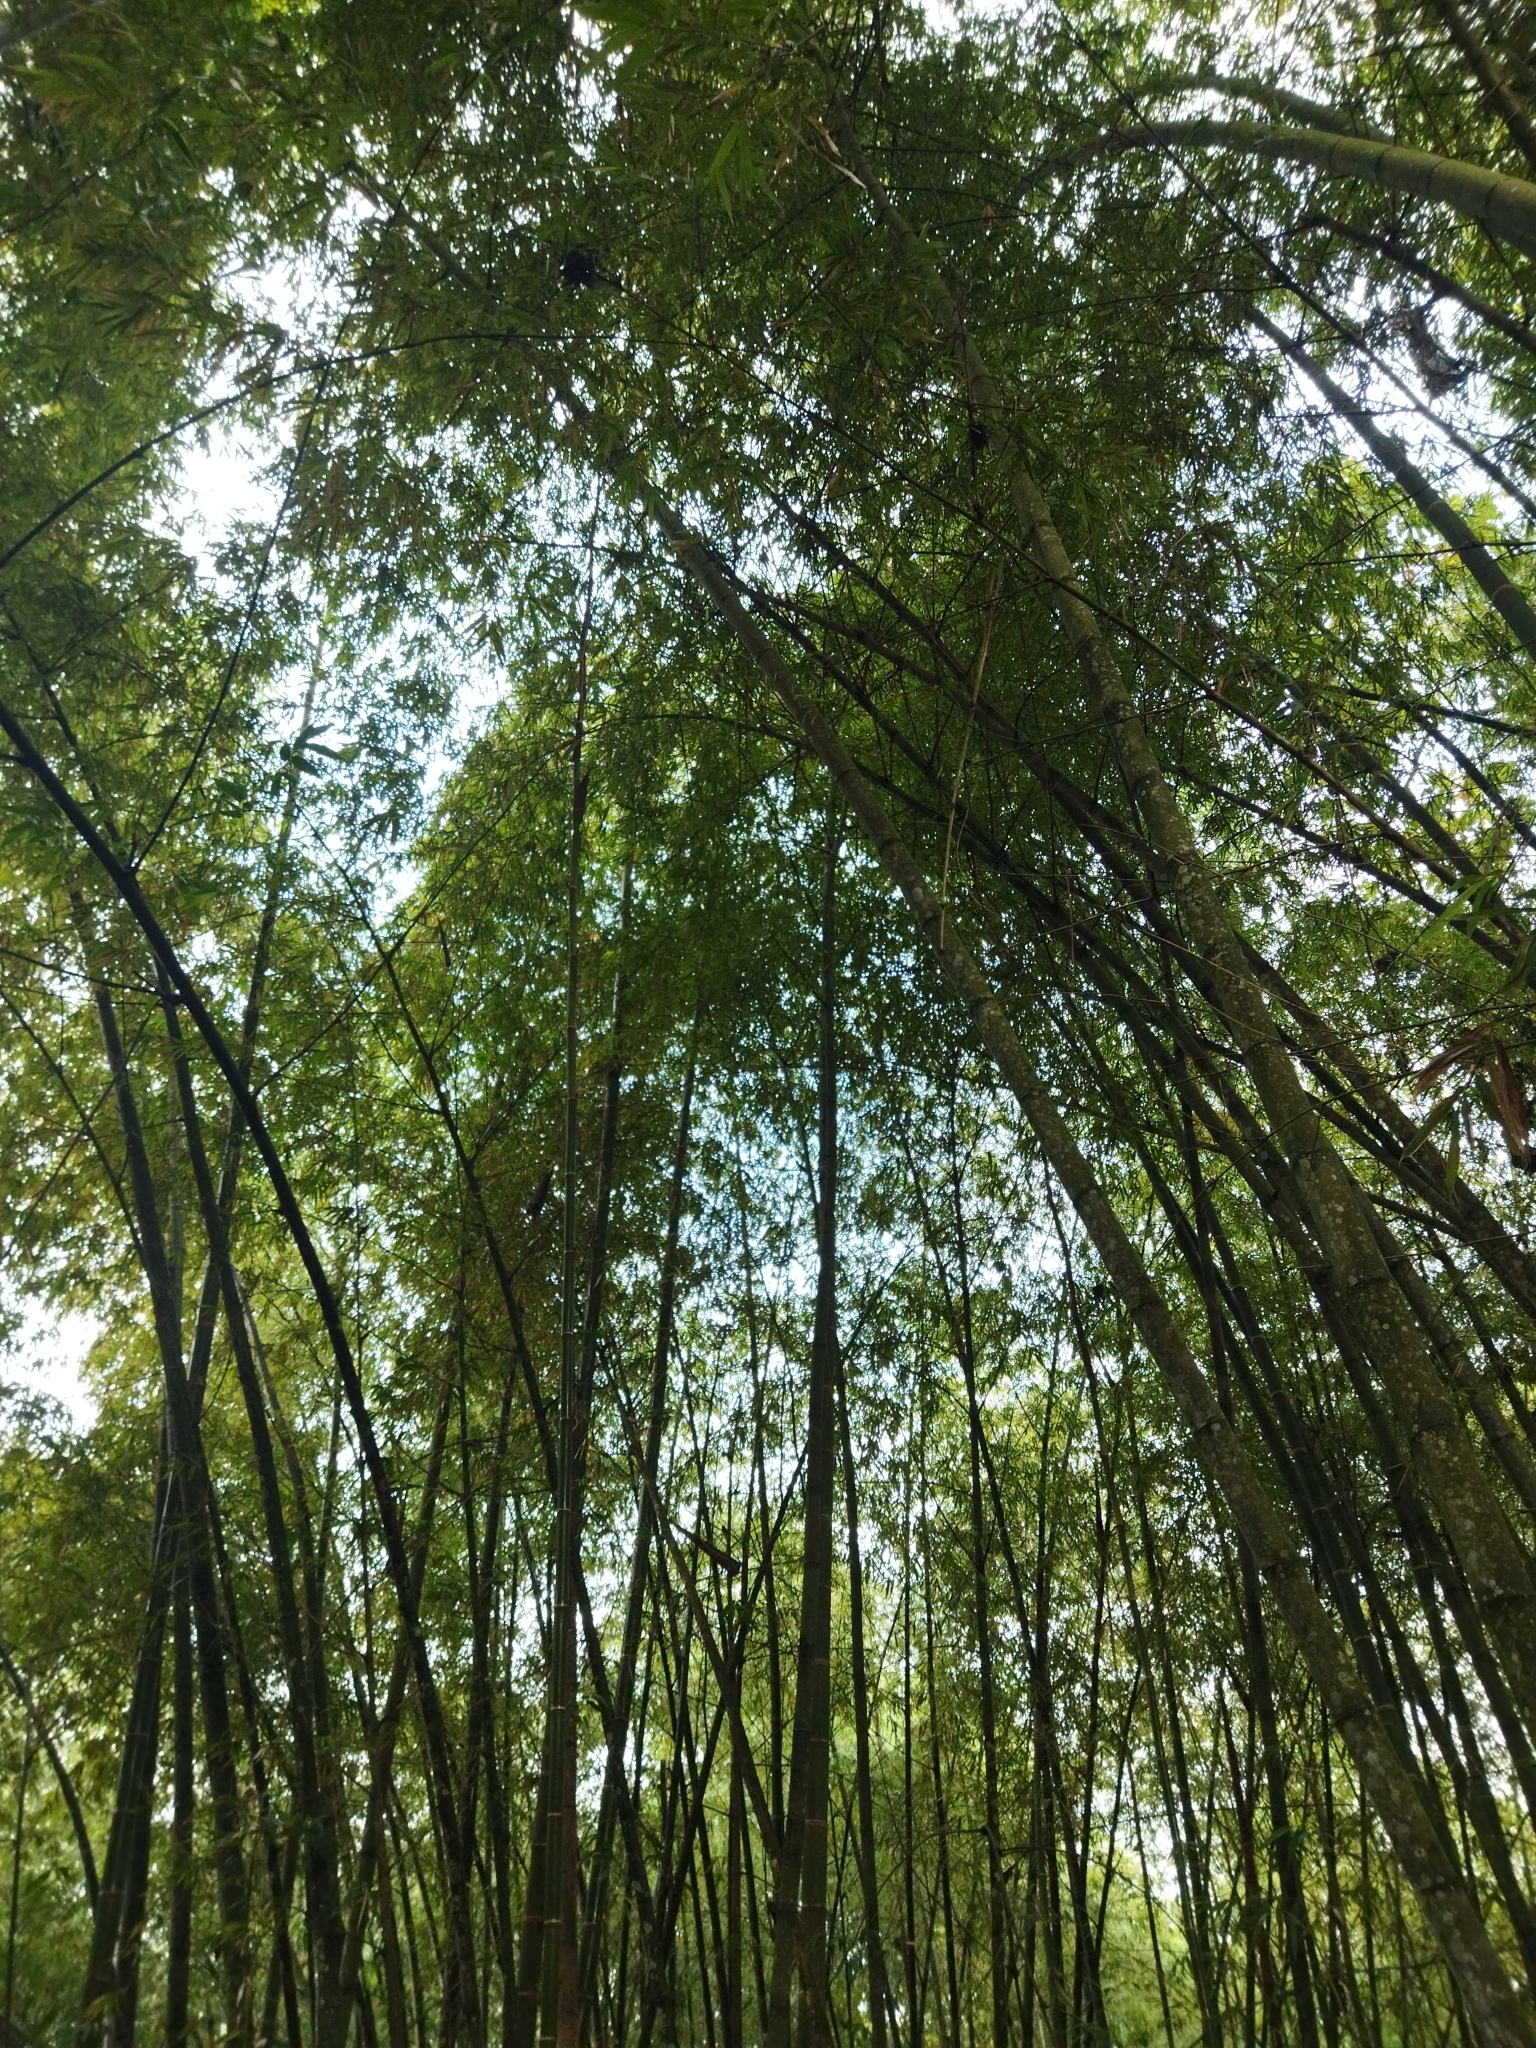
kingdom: Plantae
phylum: Tracheophyta
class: Liliopsida
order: Poales
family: Poaceae
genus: Guadua
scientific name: Guadua angustifolia
